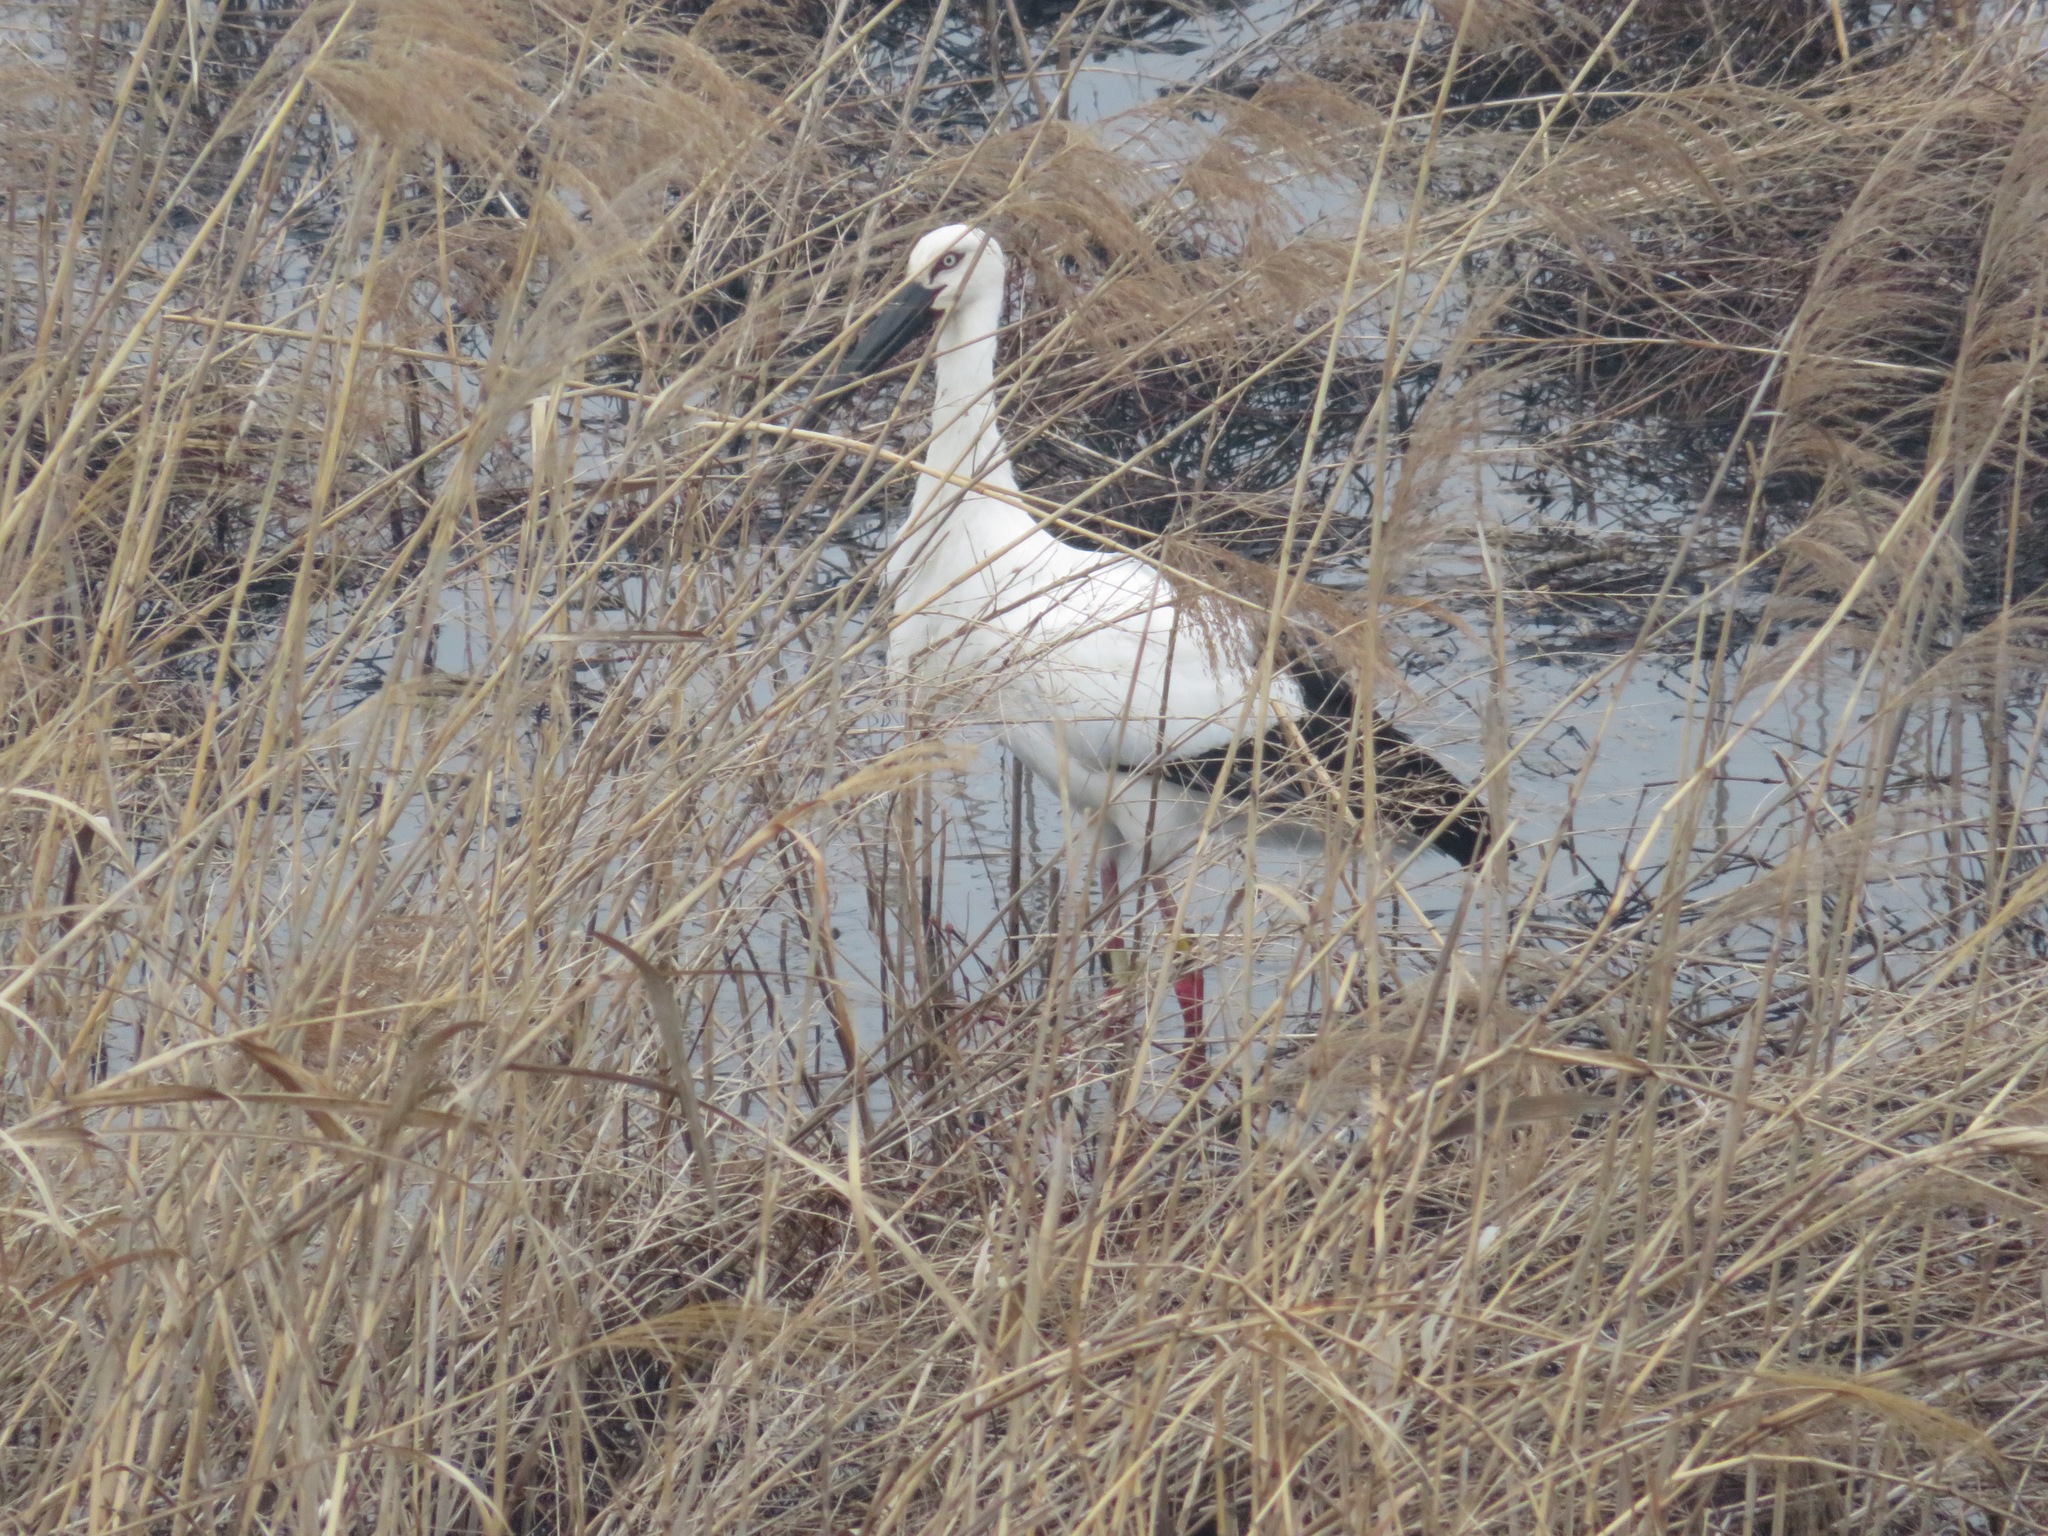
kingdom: Animalia
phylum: Chordata
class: Aves
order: Ciconiiformes
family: Ciconiidae
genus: Ciconia
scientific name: Ciconia boyciana
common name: Oriental stork
